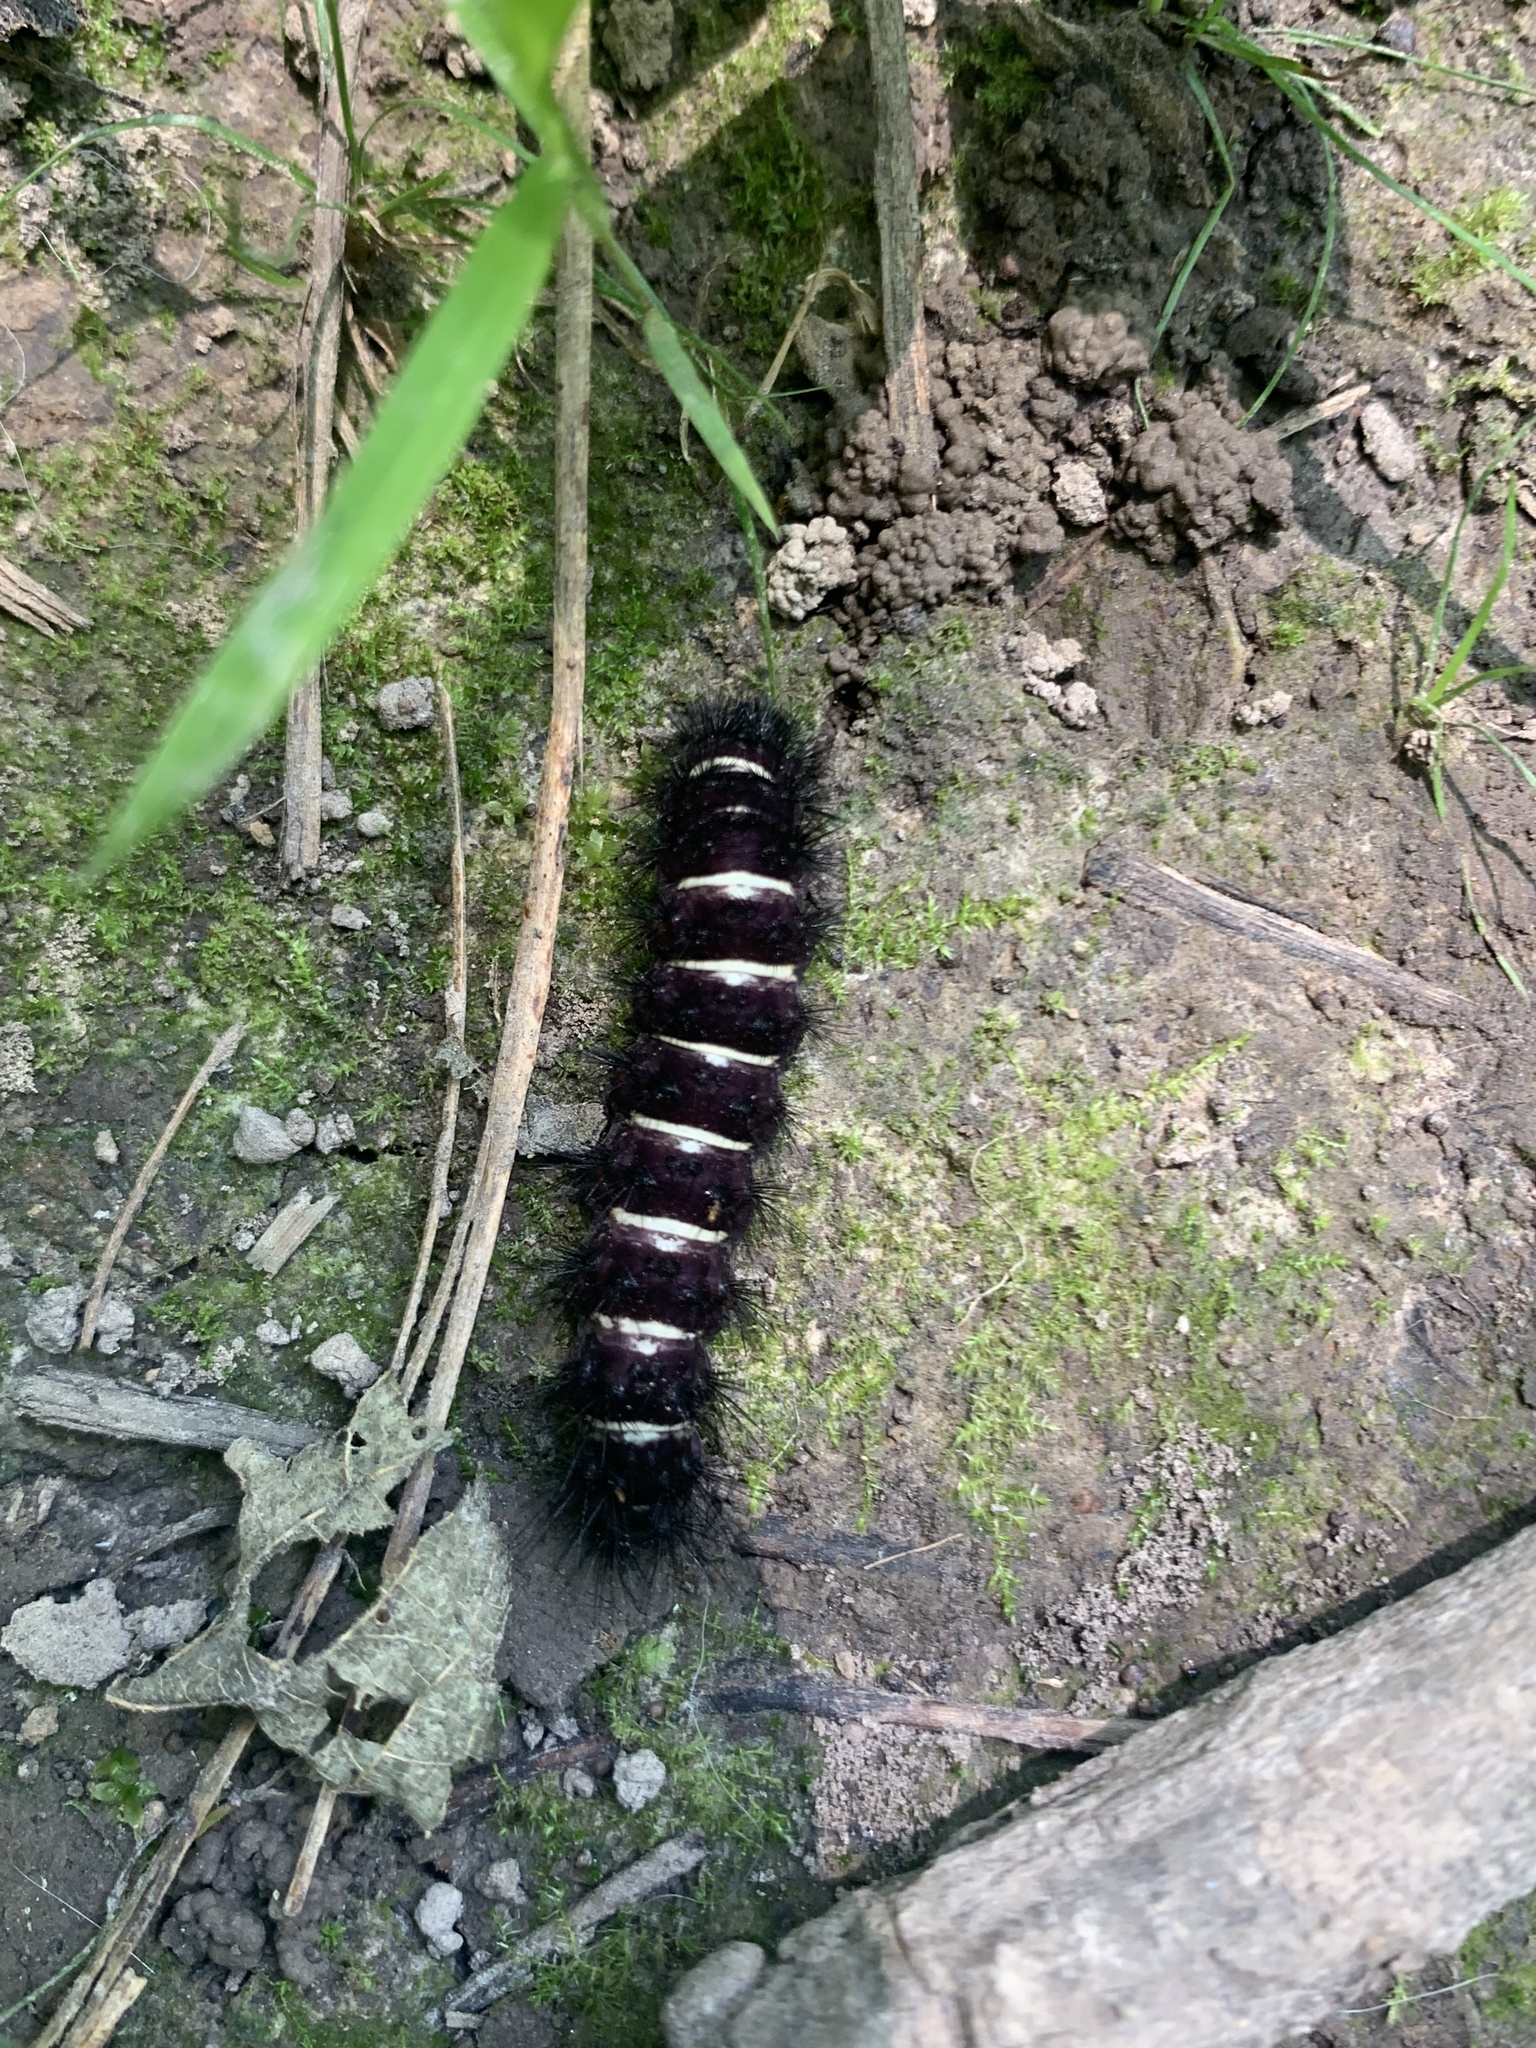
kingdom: Animalia
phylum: Arthropoda
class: Insecta
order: Lepidoptera
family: Erebidae
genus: Spilosoma
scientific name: Spilosoma congrua
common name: Agreeable tiger moth
